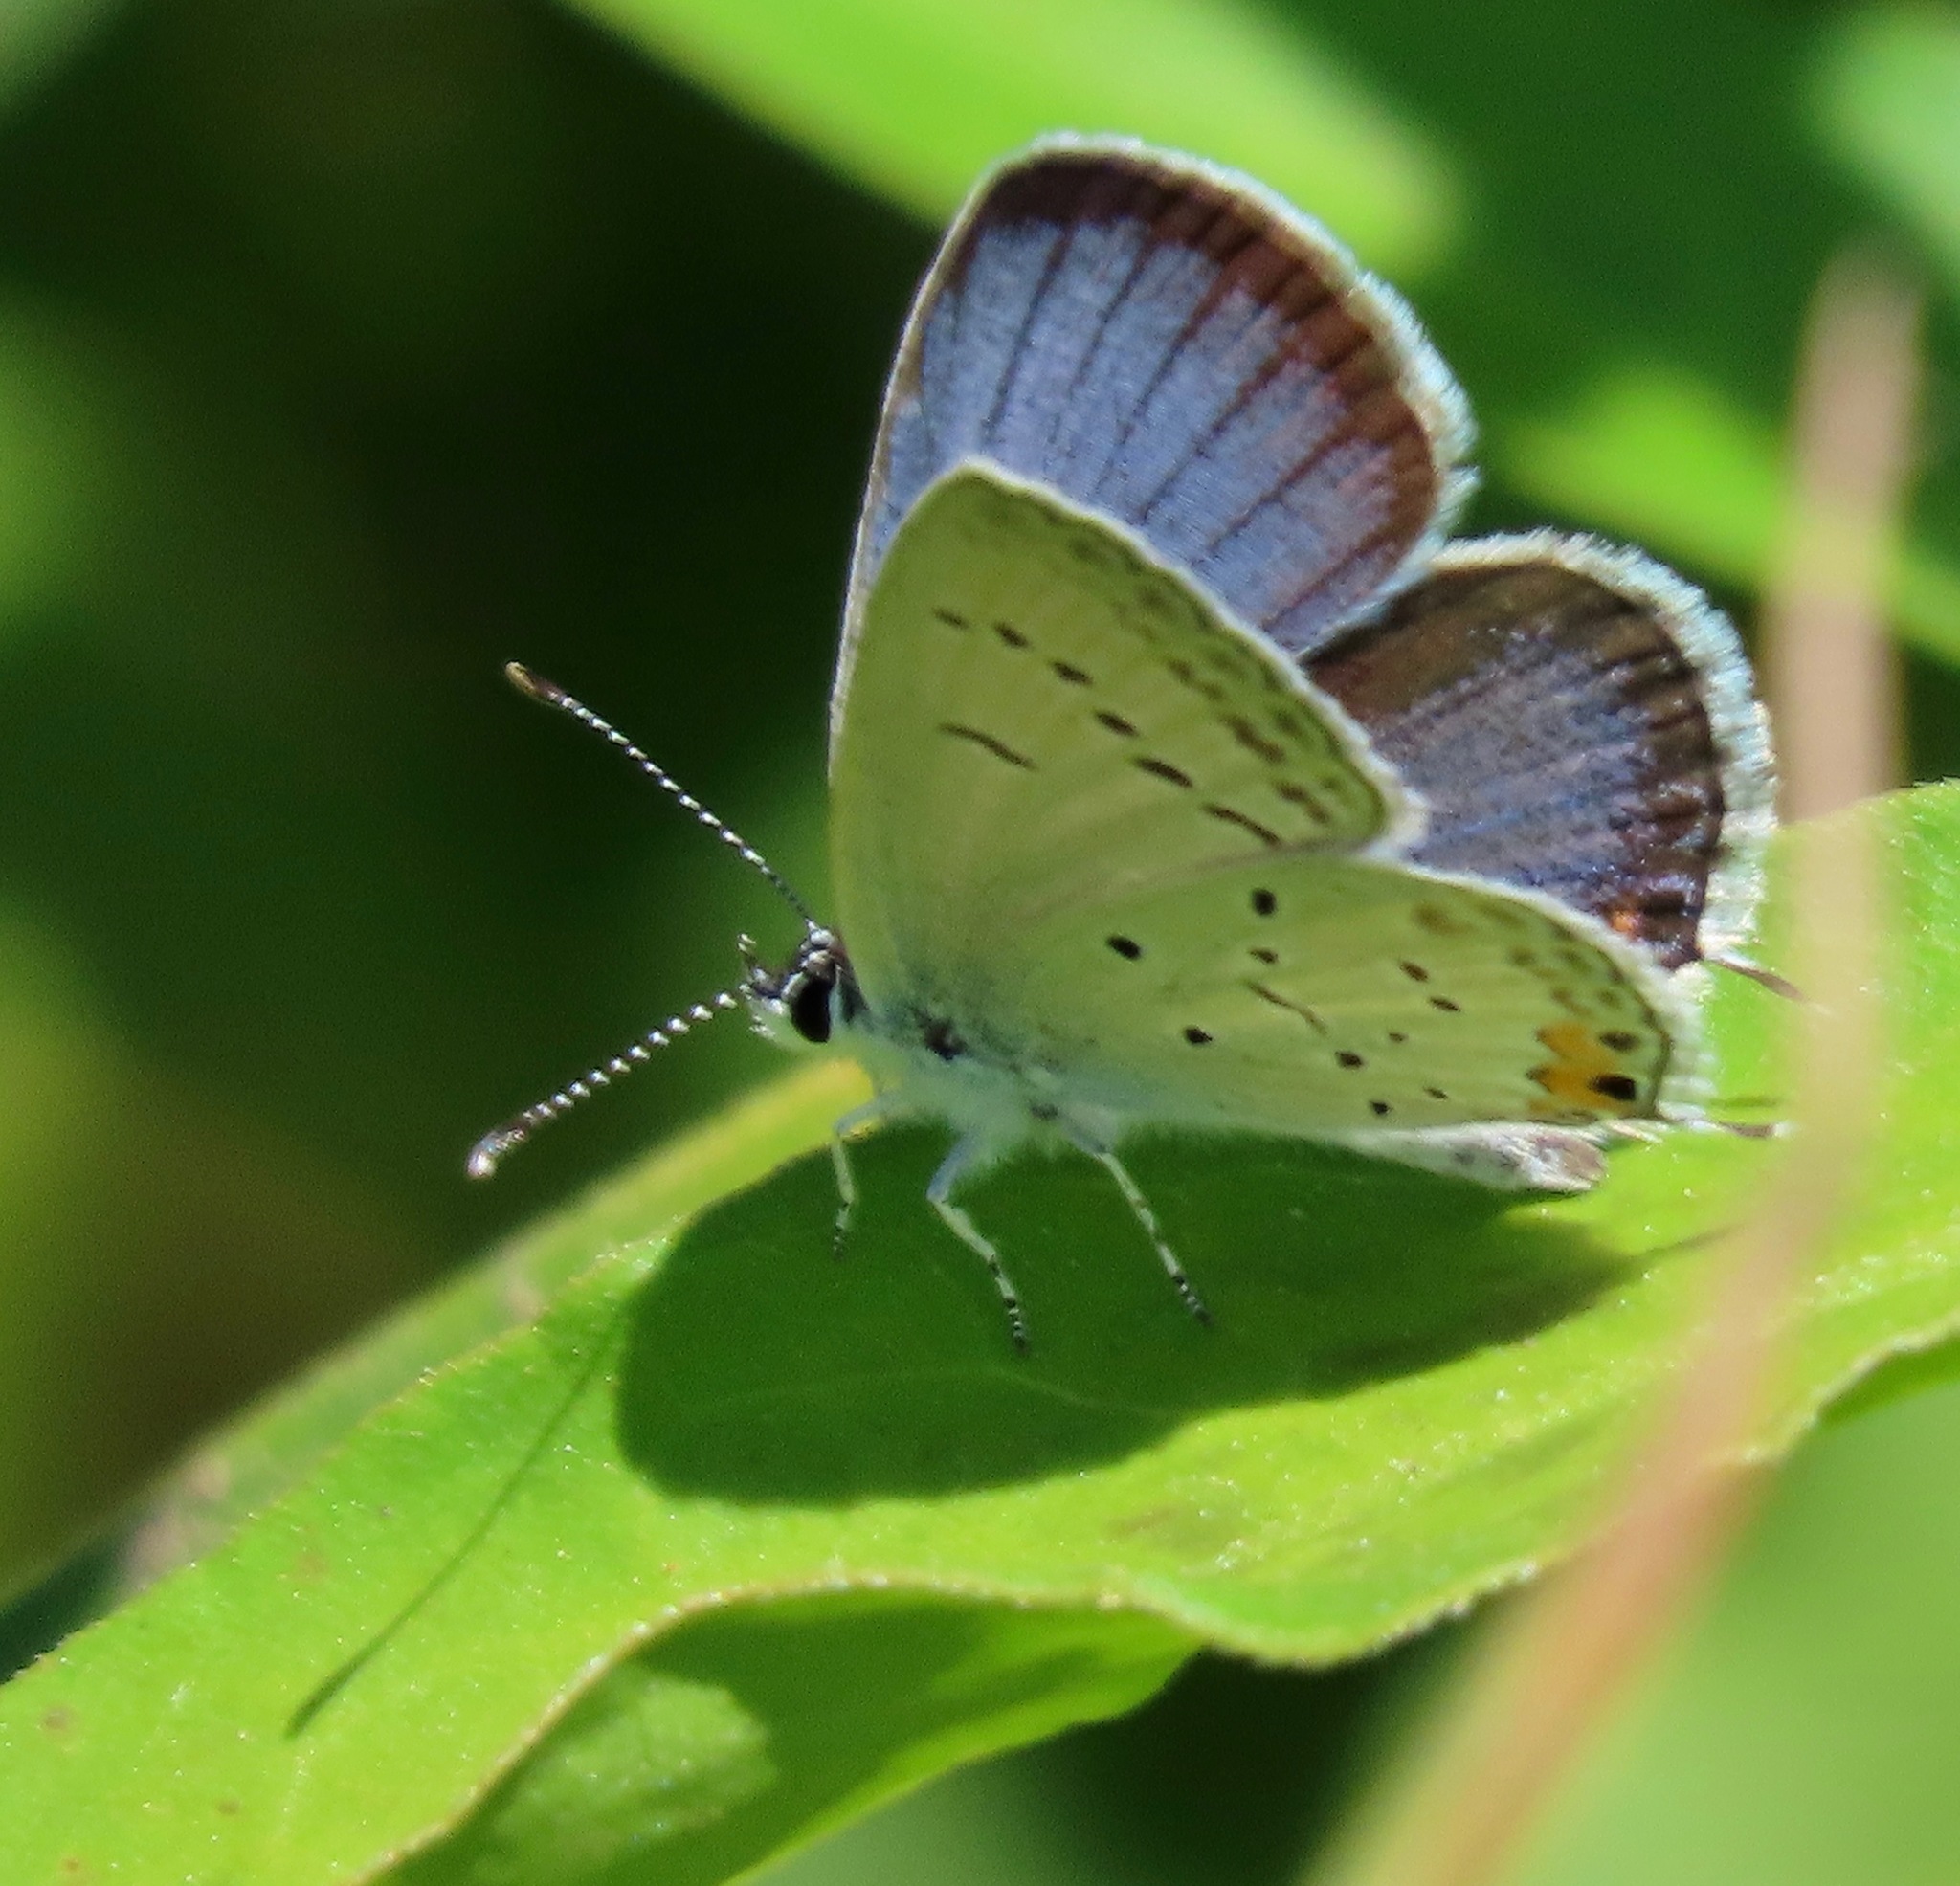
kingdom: Animalia
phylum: Arthropoda
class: Insecta
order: Lepidoptera
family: Lycaenidae
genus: Elkalyce
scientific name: Elkalyce comyntas
